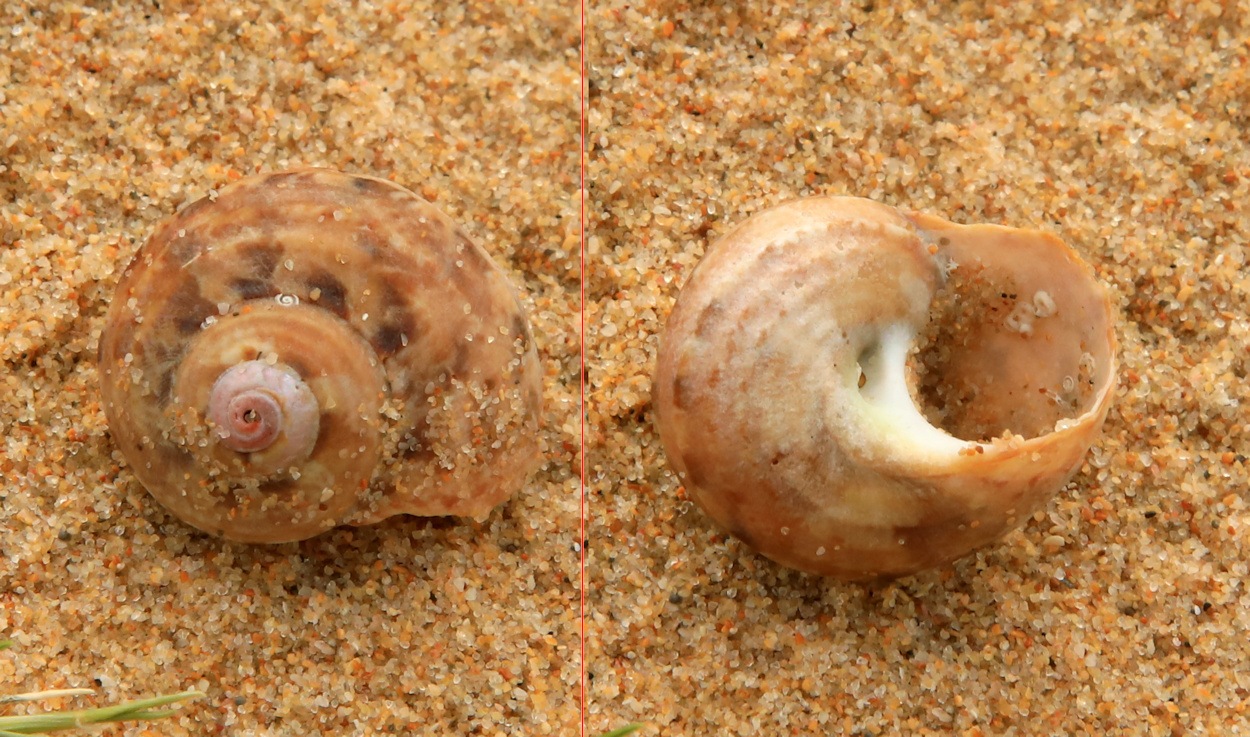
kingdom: Animalia
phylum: Mollusca
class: Gastropoda
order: Trochida
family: Turbinidae
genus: Turbo
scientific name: Turbo cidaris
